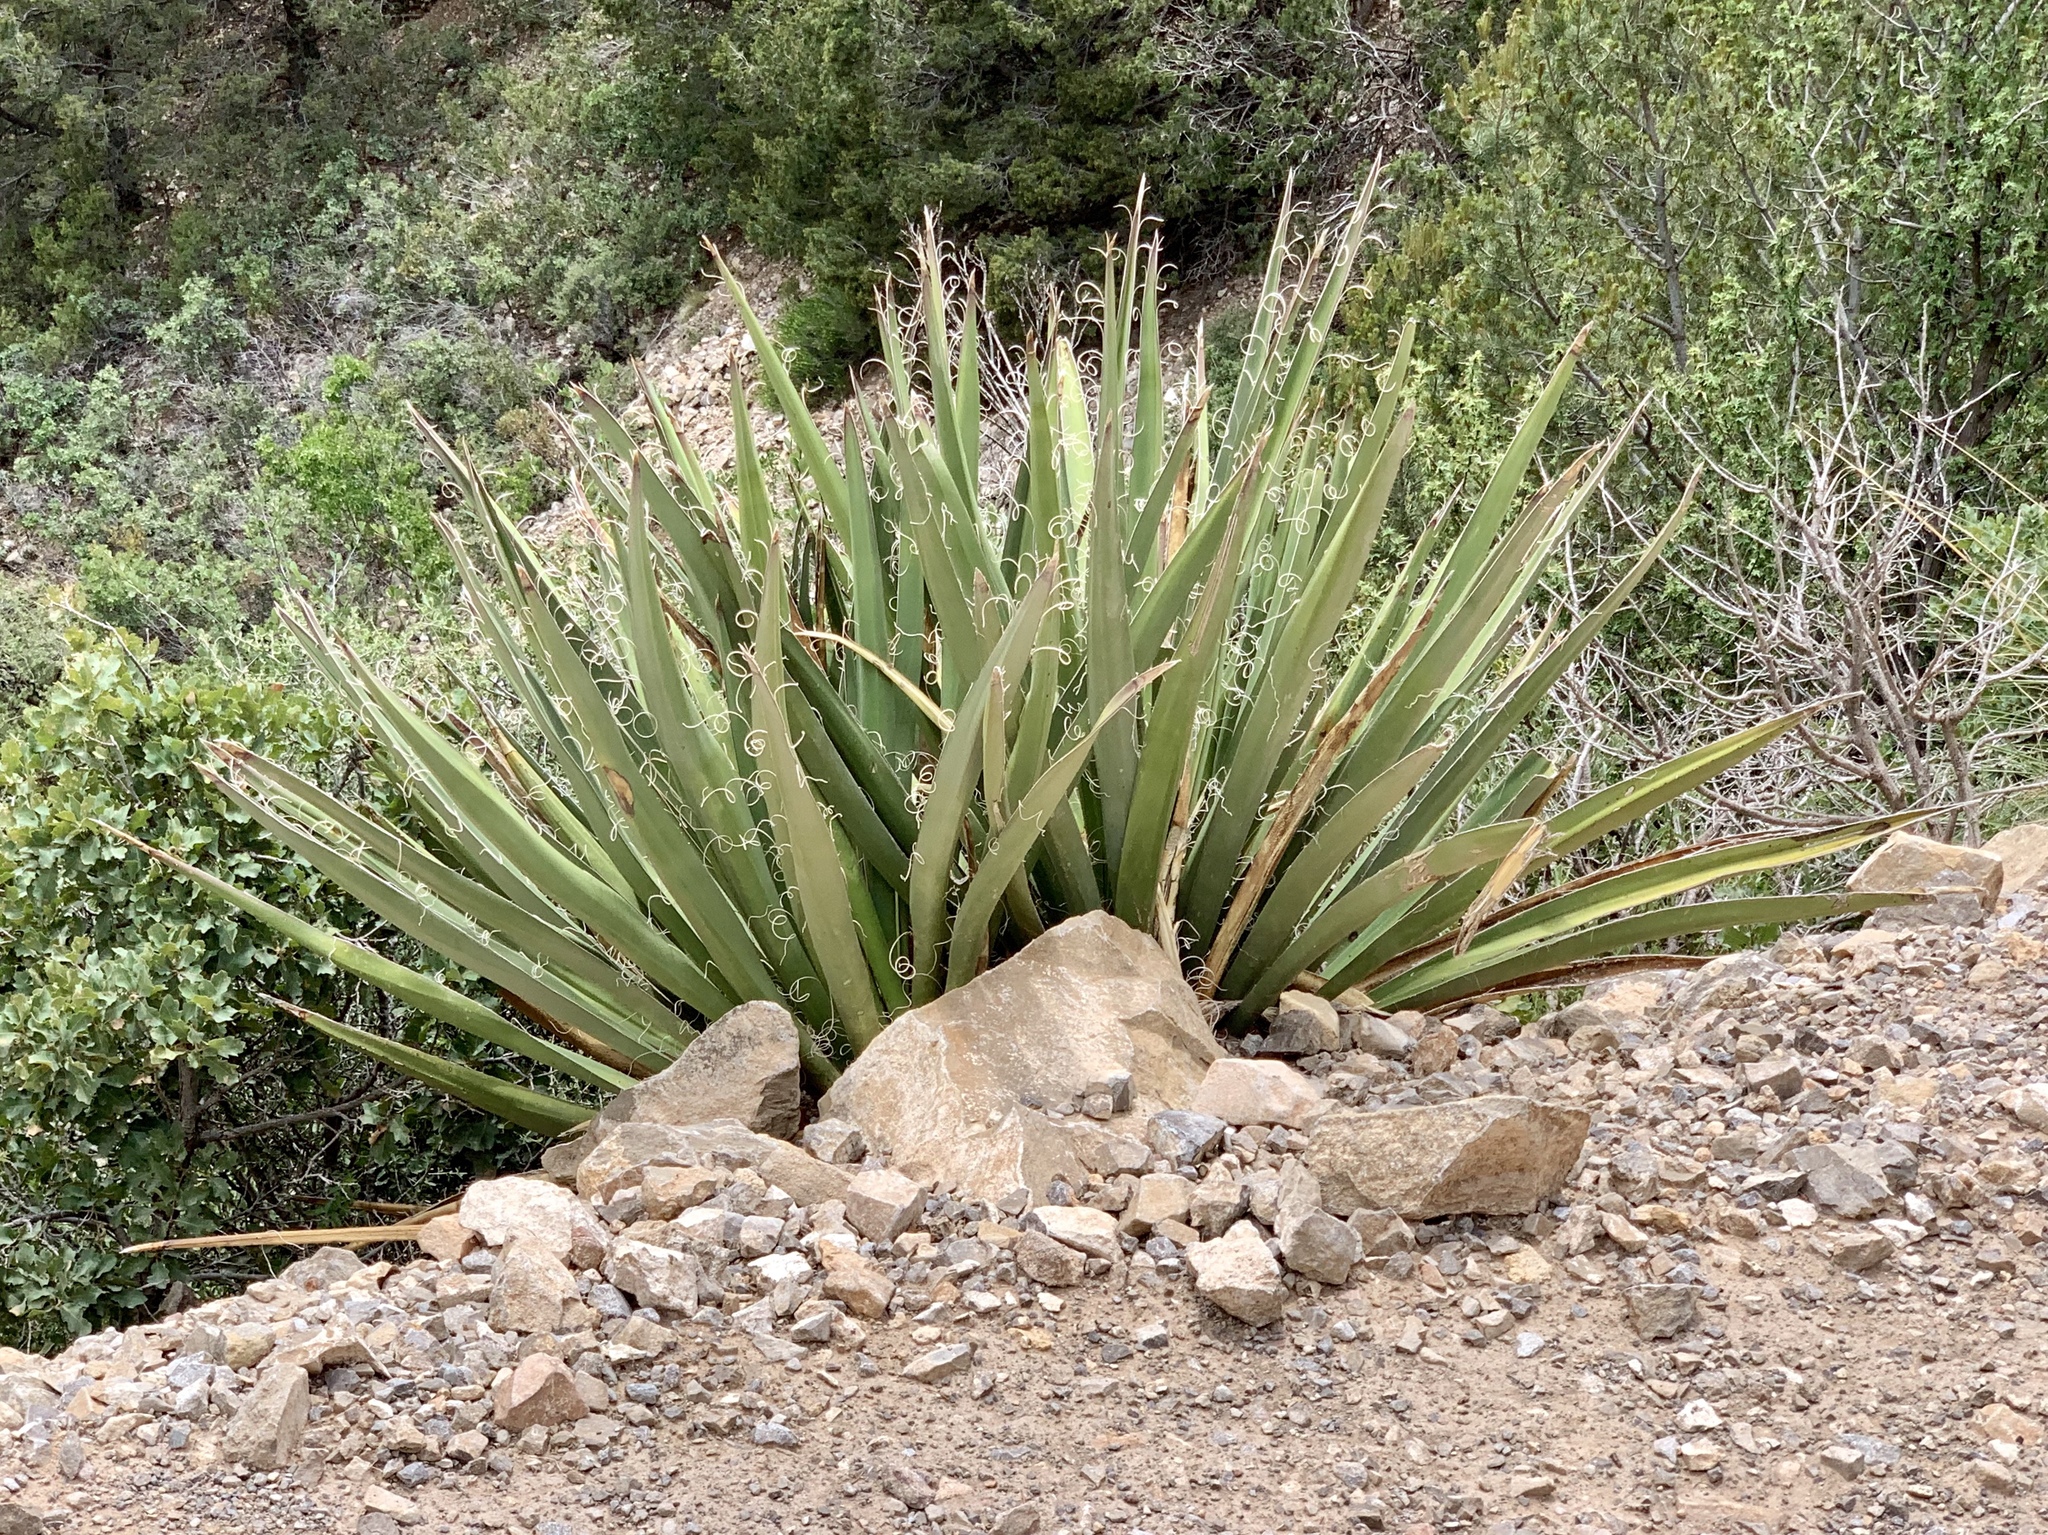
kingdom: Plantae
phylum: Tracheophyta
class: Liliopsida
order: Asparagales
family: Asparagaceae
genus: Yucca
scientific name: Yucca baccata
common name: Banana yucca
